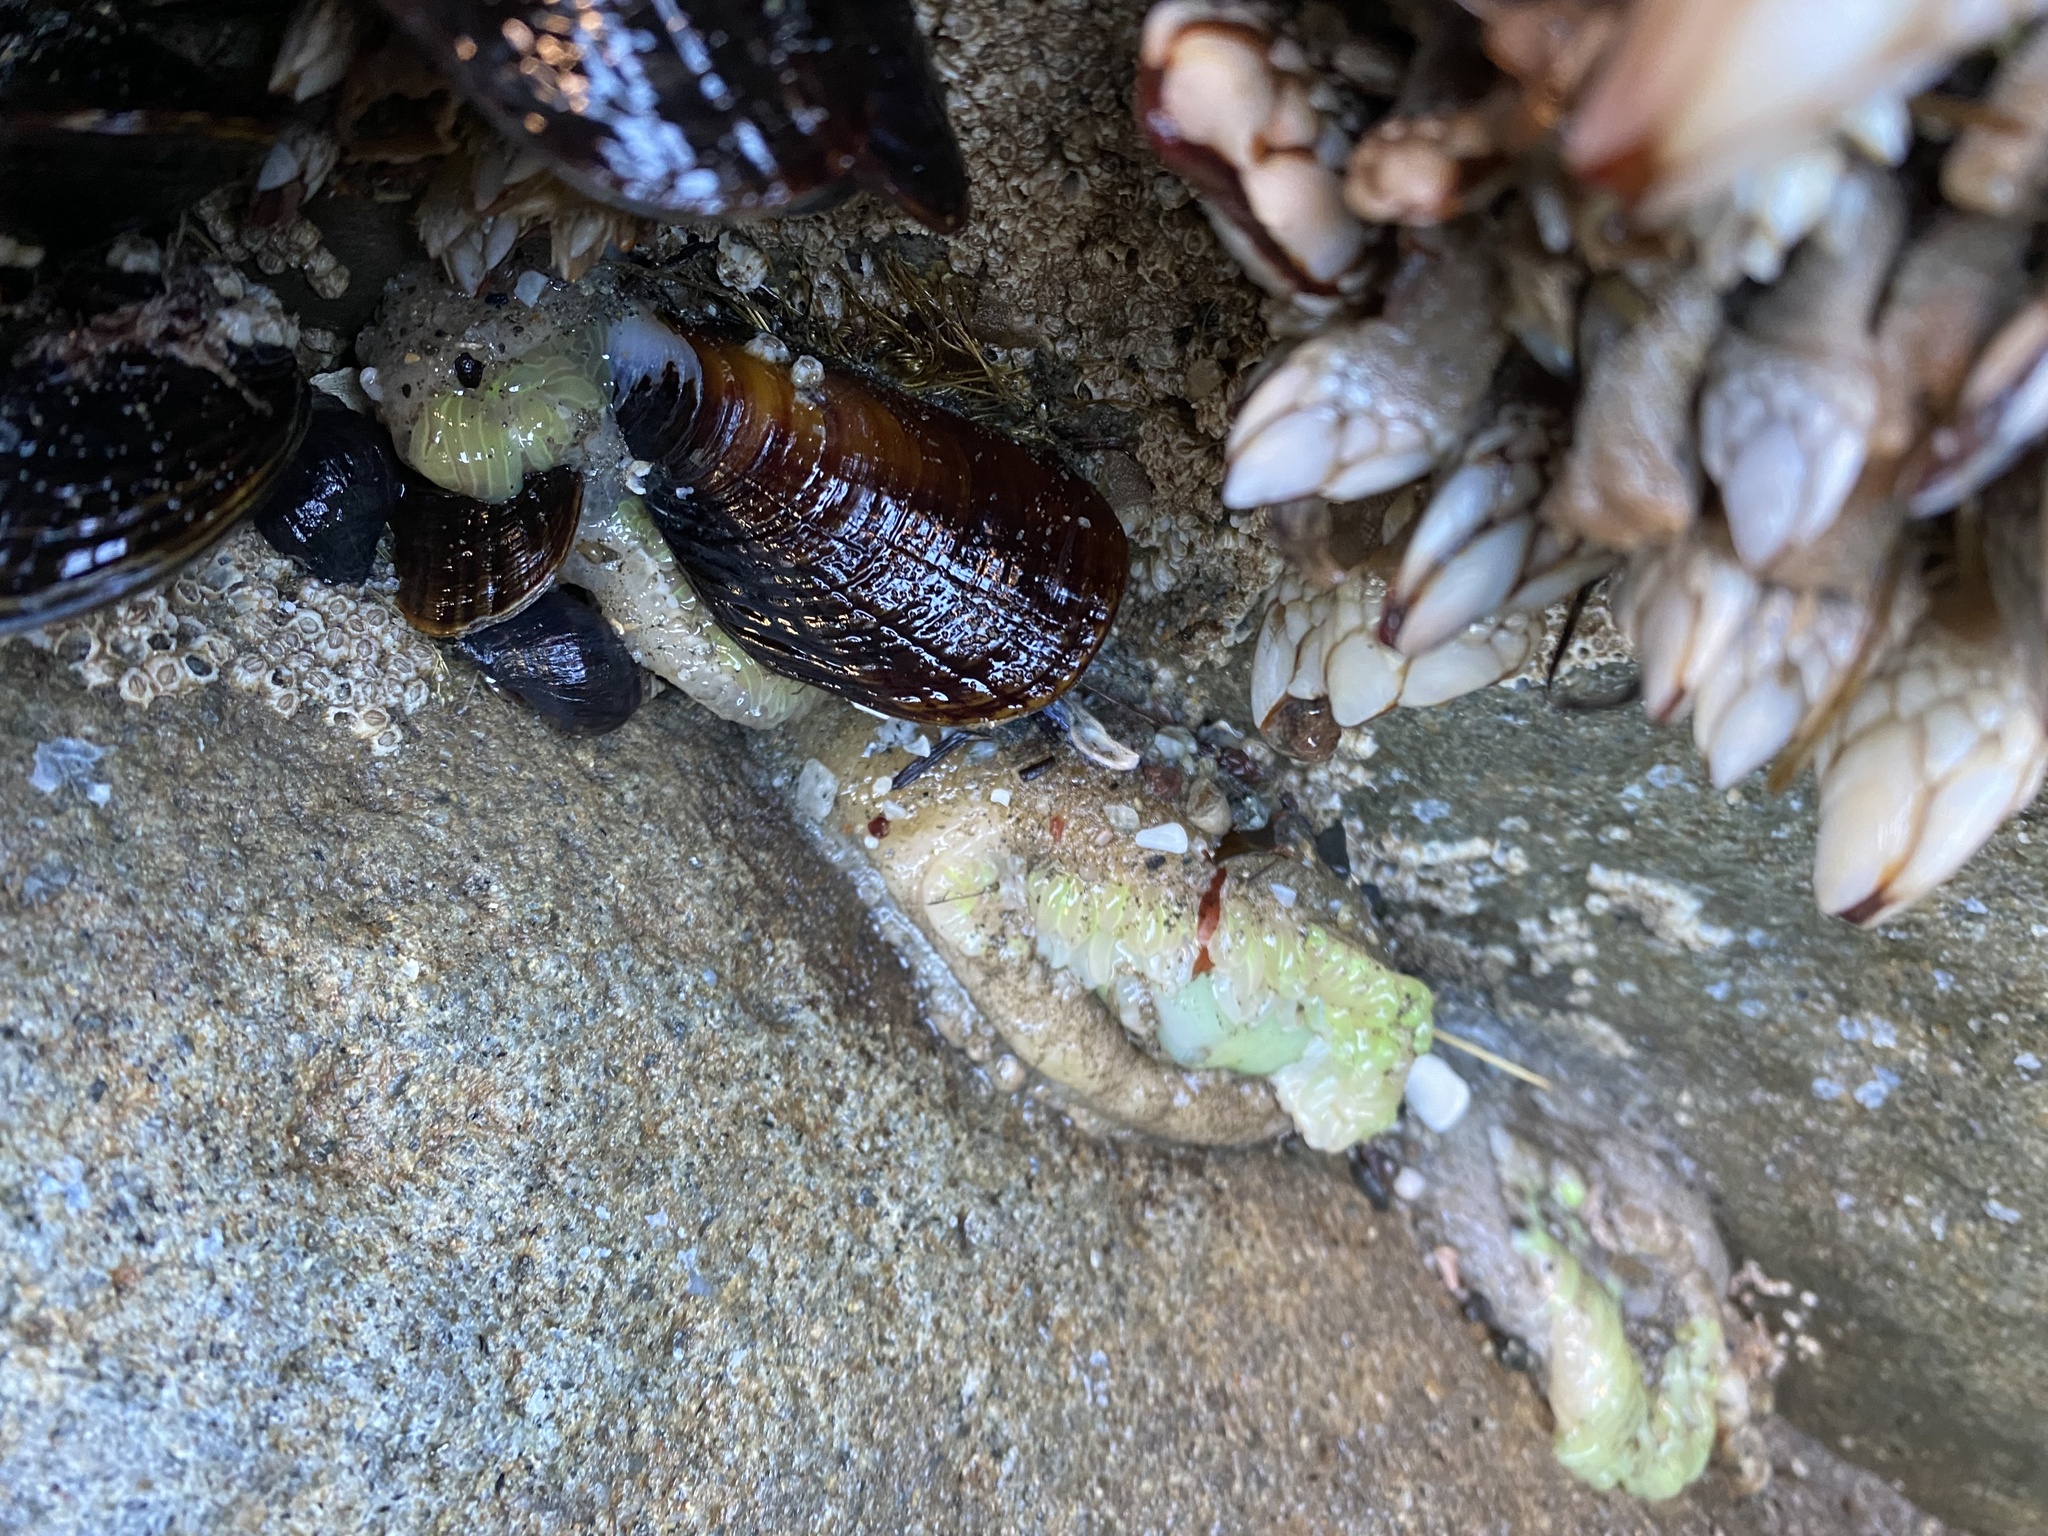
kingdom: Animalia
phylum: Arthropoda
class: Maxillopoda
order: Pedunculata
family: Pollicipedidae
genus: Pollicipes
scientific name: Pollicipes polymerus
